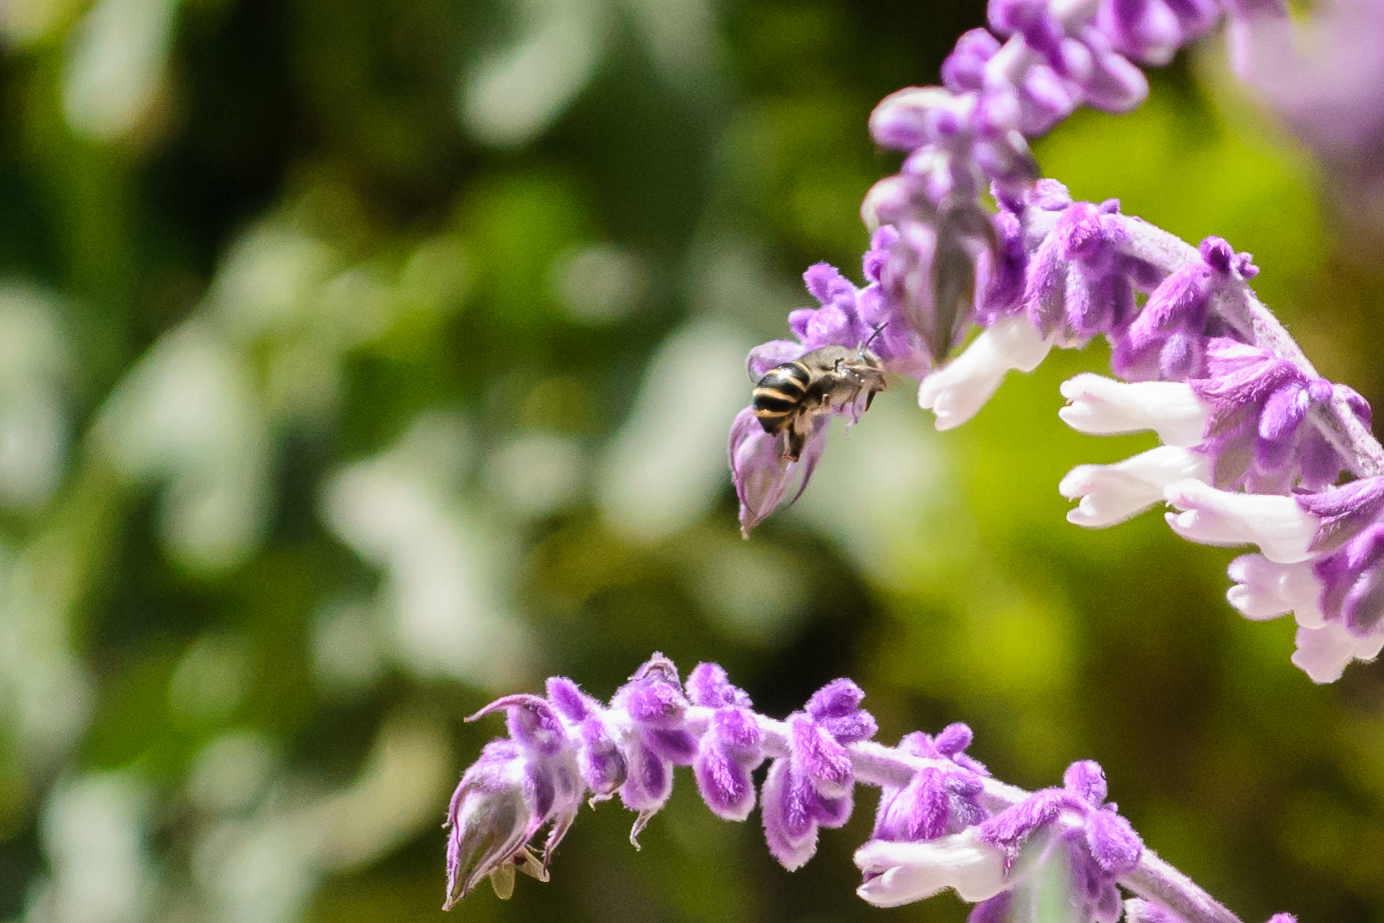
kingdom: Animalia
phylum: Arthropoda
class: Insecta
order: Hymenoptera
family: Apidae
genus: Anthophora
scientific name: Anthophora marginata
